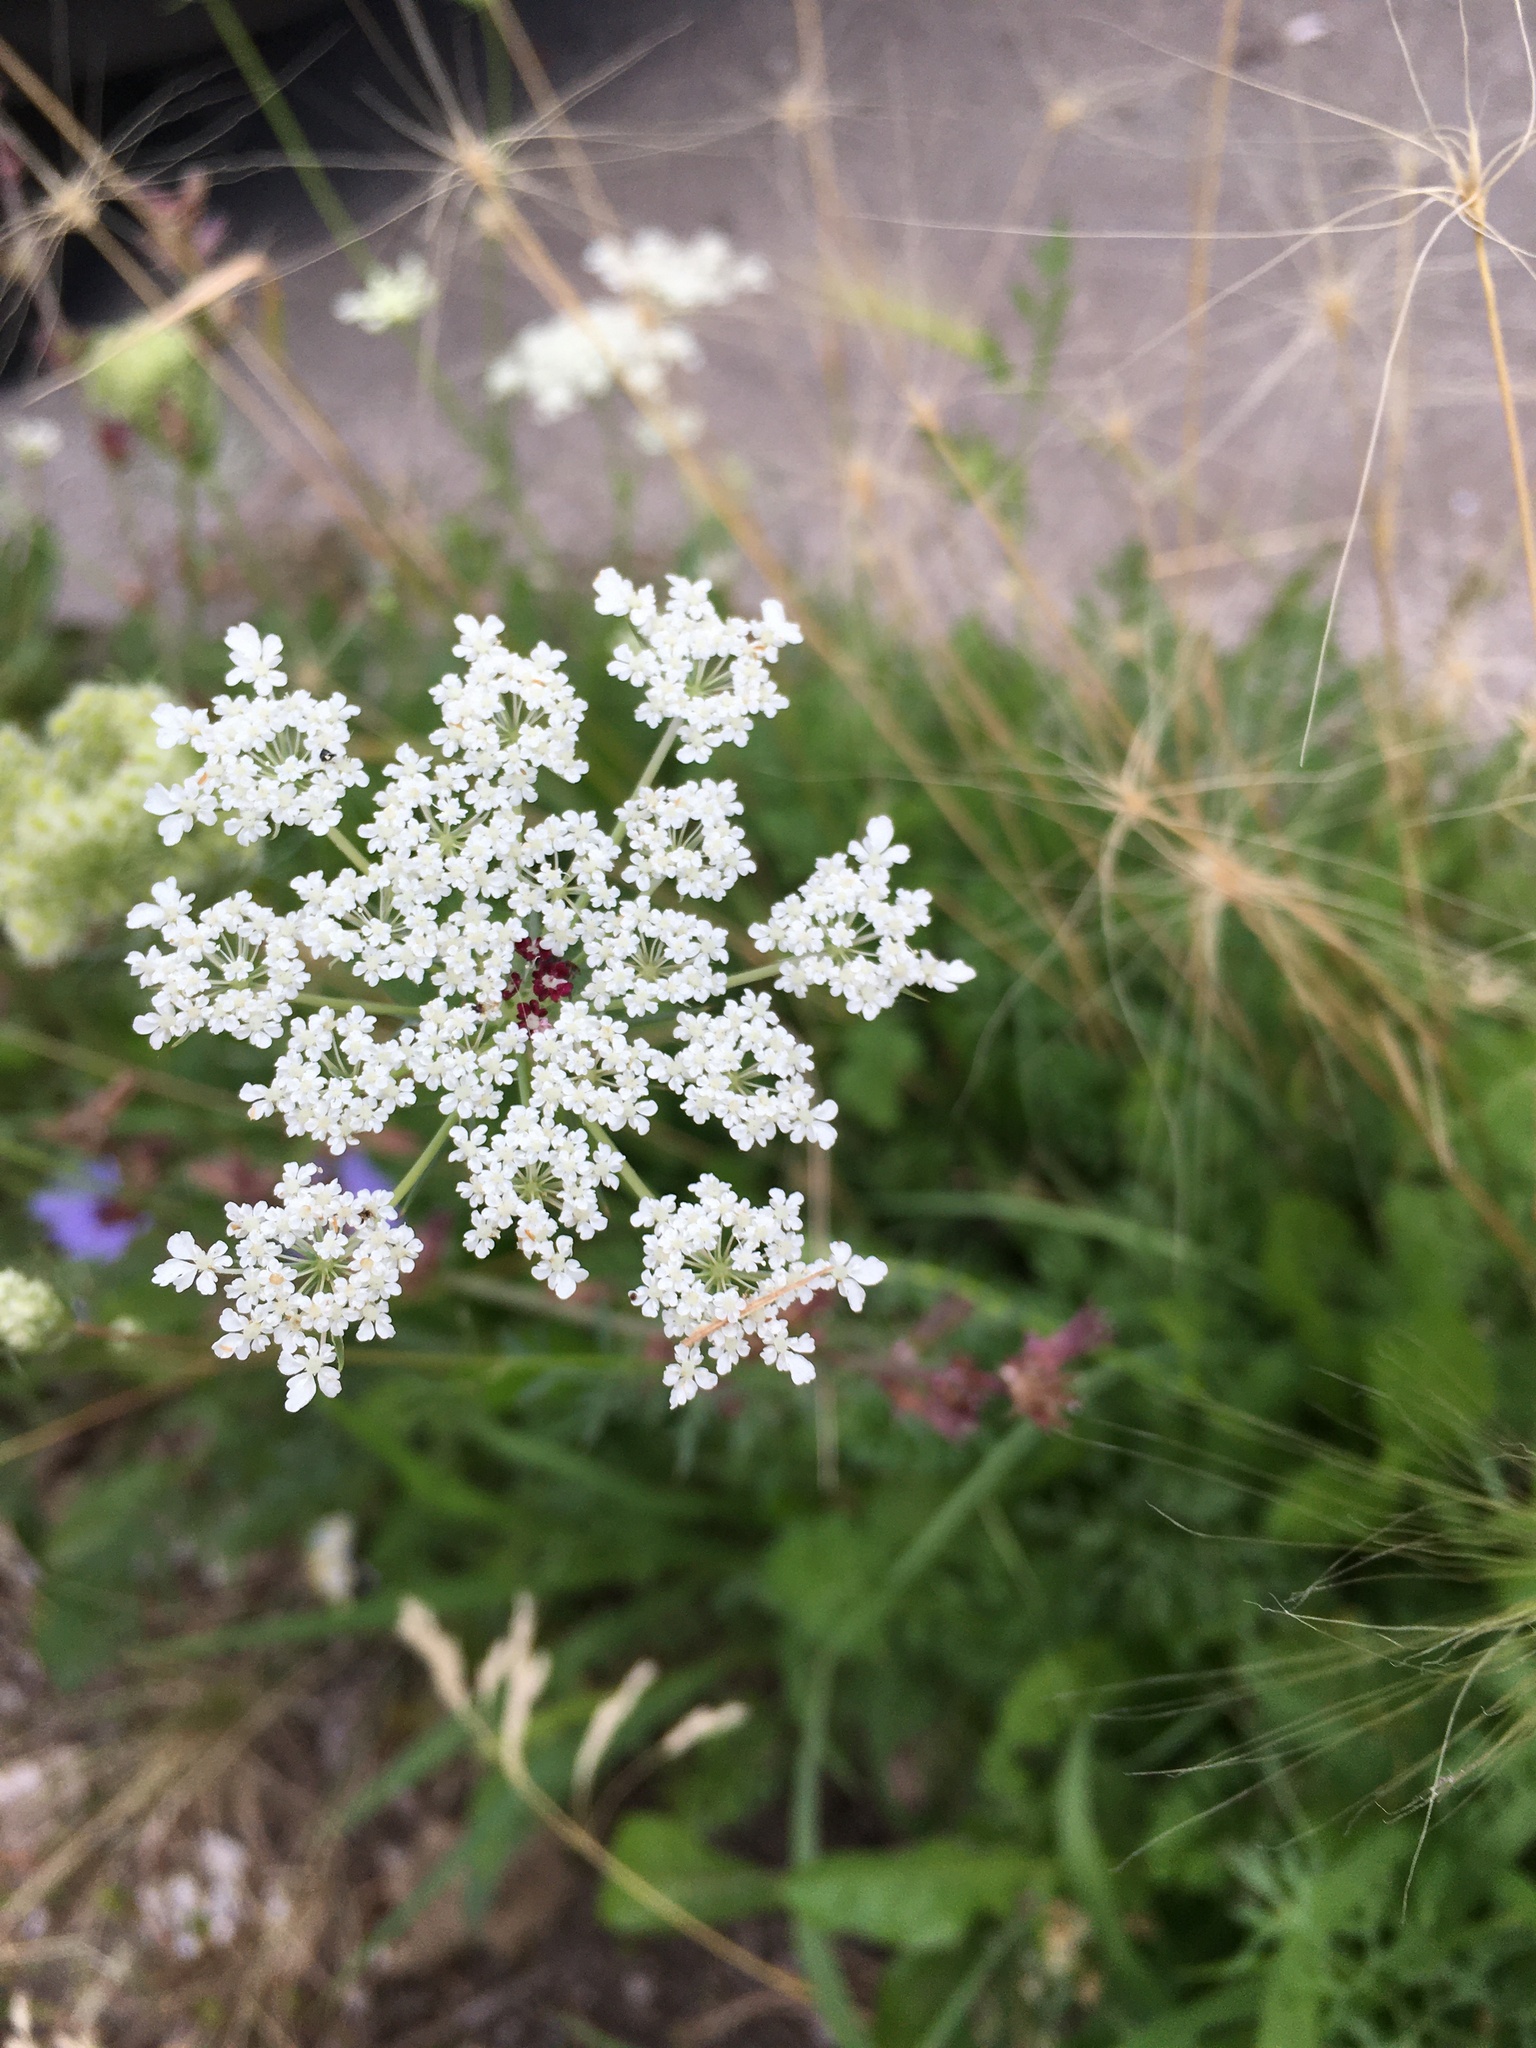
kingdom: Plantae
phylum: Tracheophyta
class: Magnoliopsida
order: Apiales
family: Apiaceae
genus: Daucus
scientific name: Daucus carota
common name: Wild carrot
